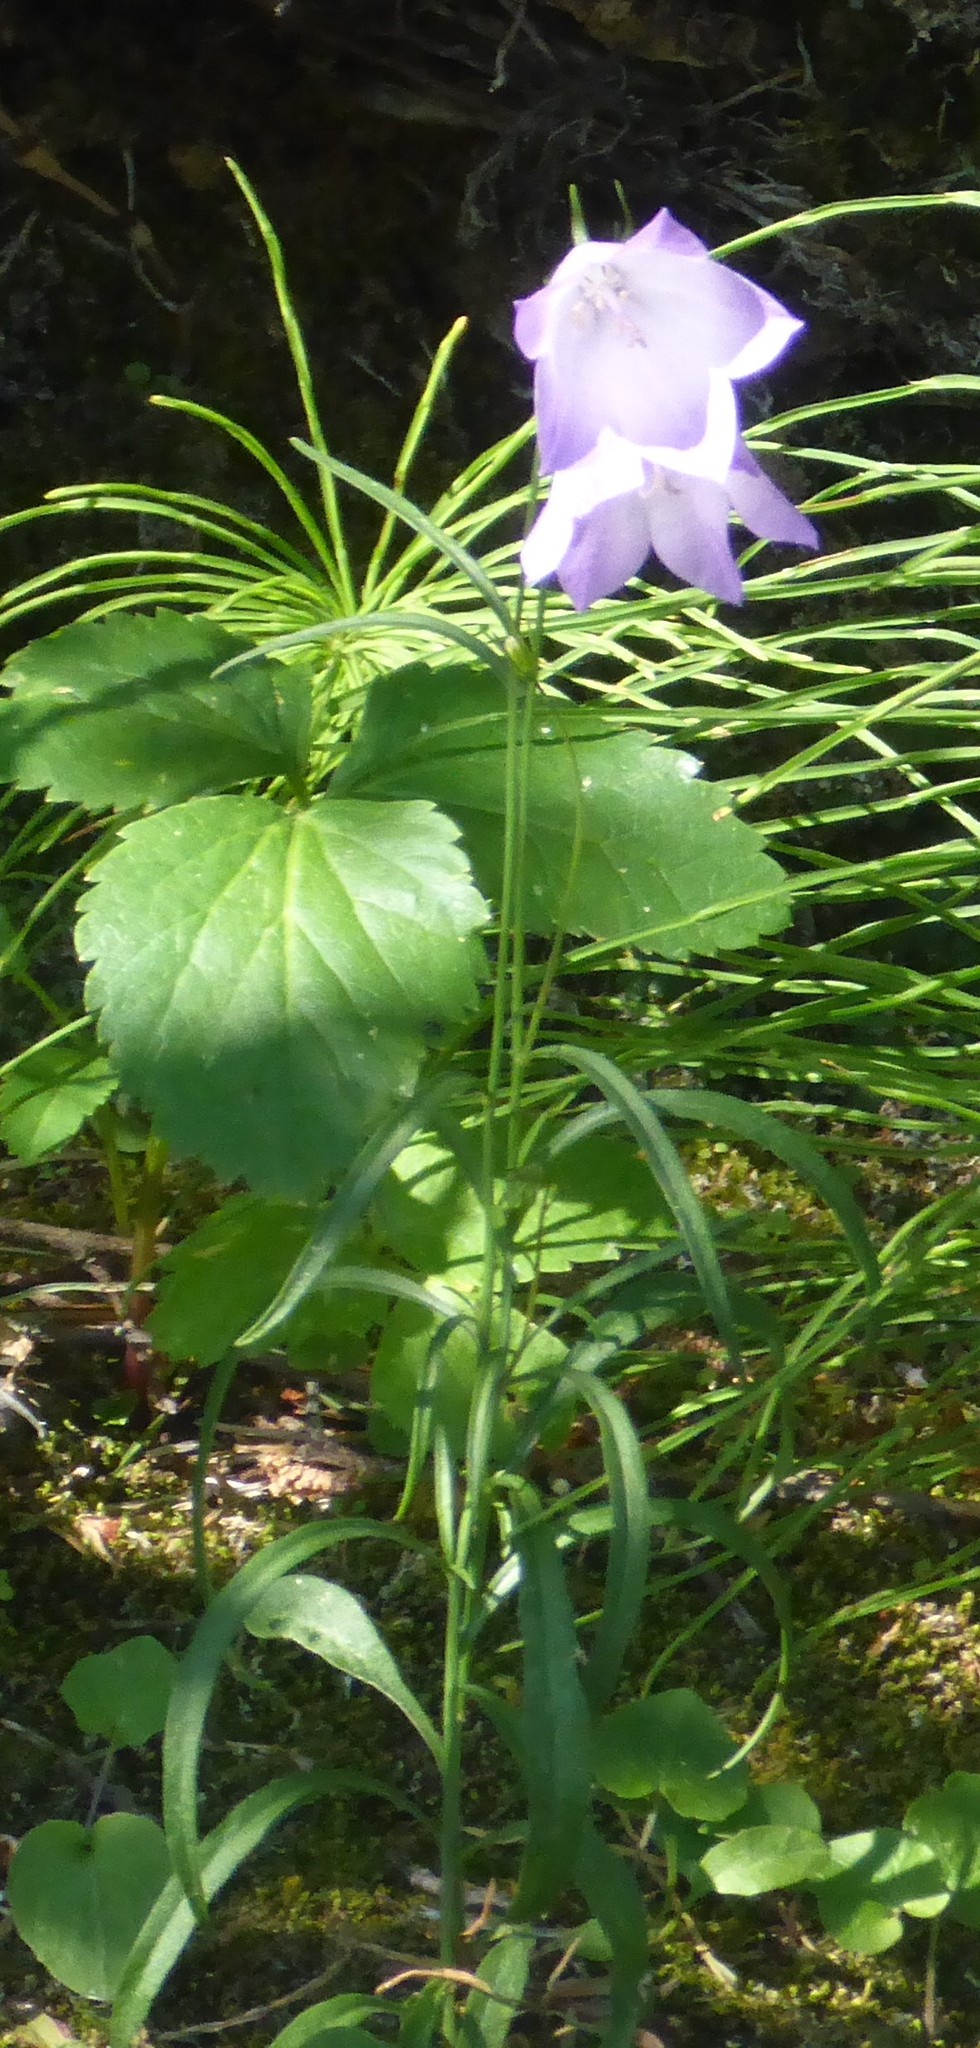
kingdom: Plantae
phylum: Tracheophyta
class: Magnoliopsida
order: Asterales
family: Campanulaceae
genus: Campanula
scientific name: Campanula alaskana
